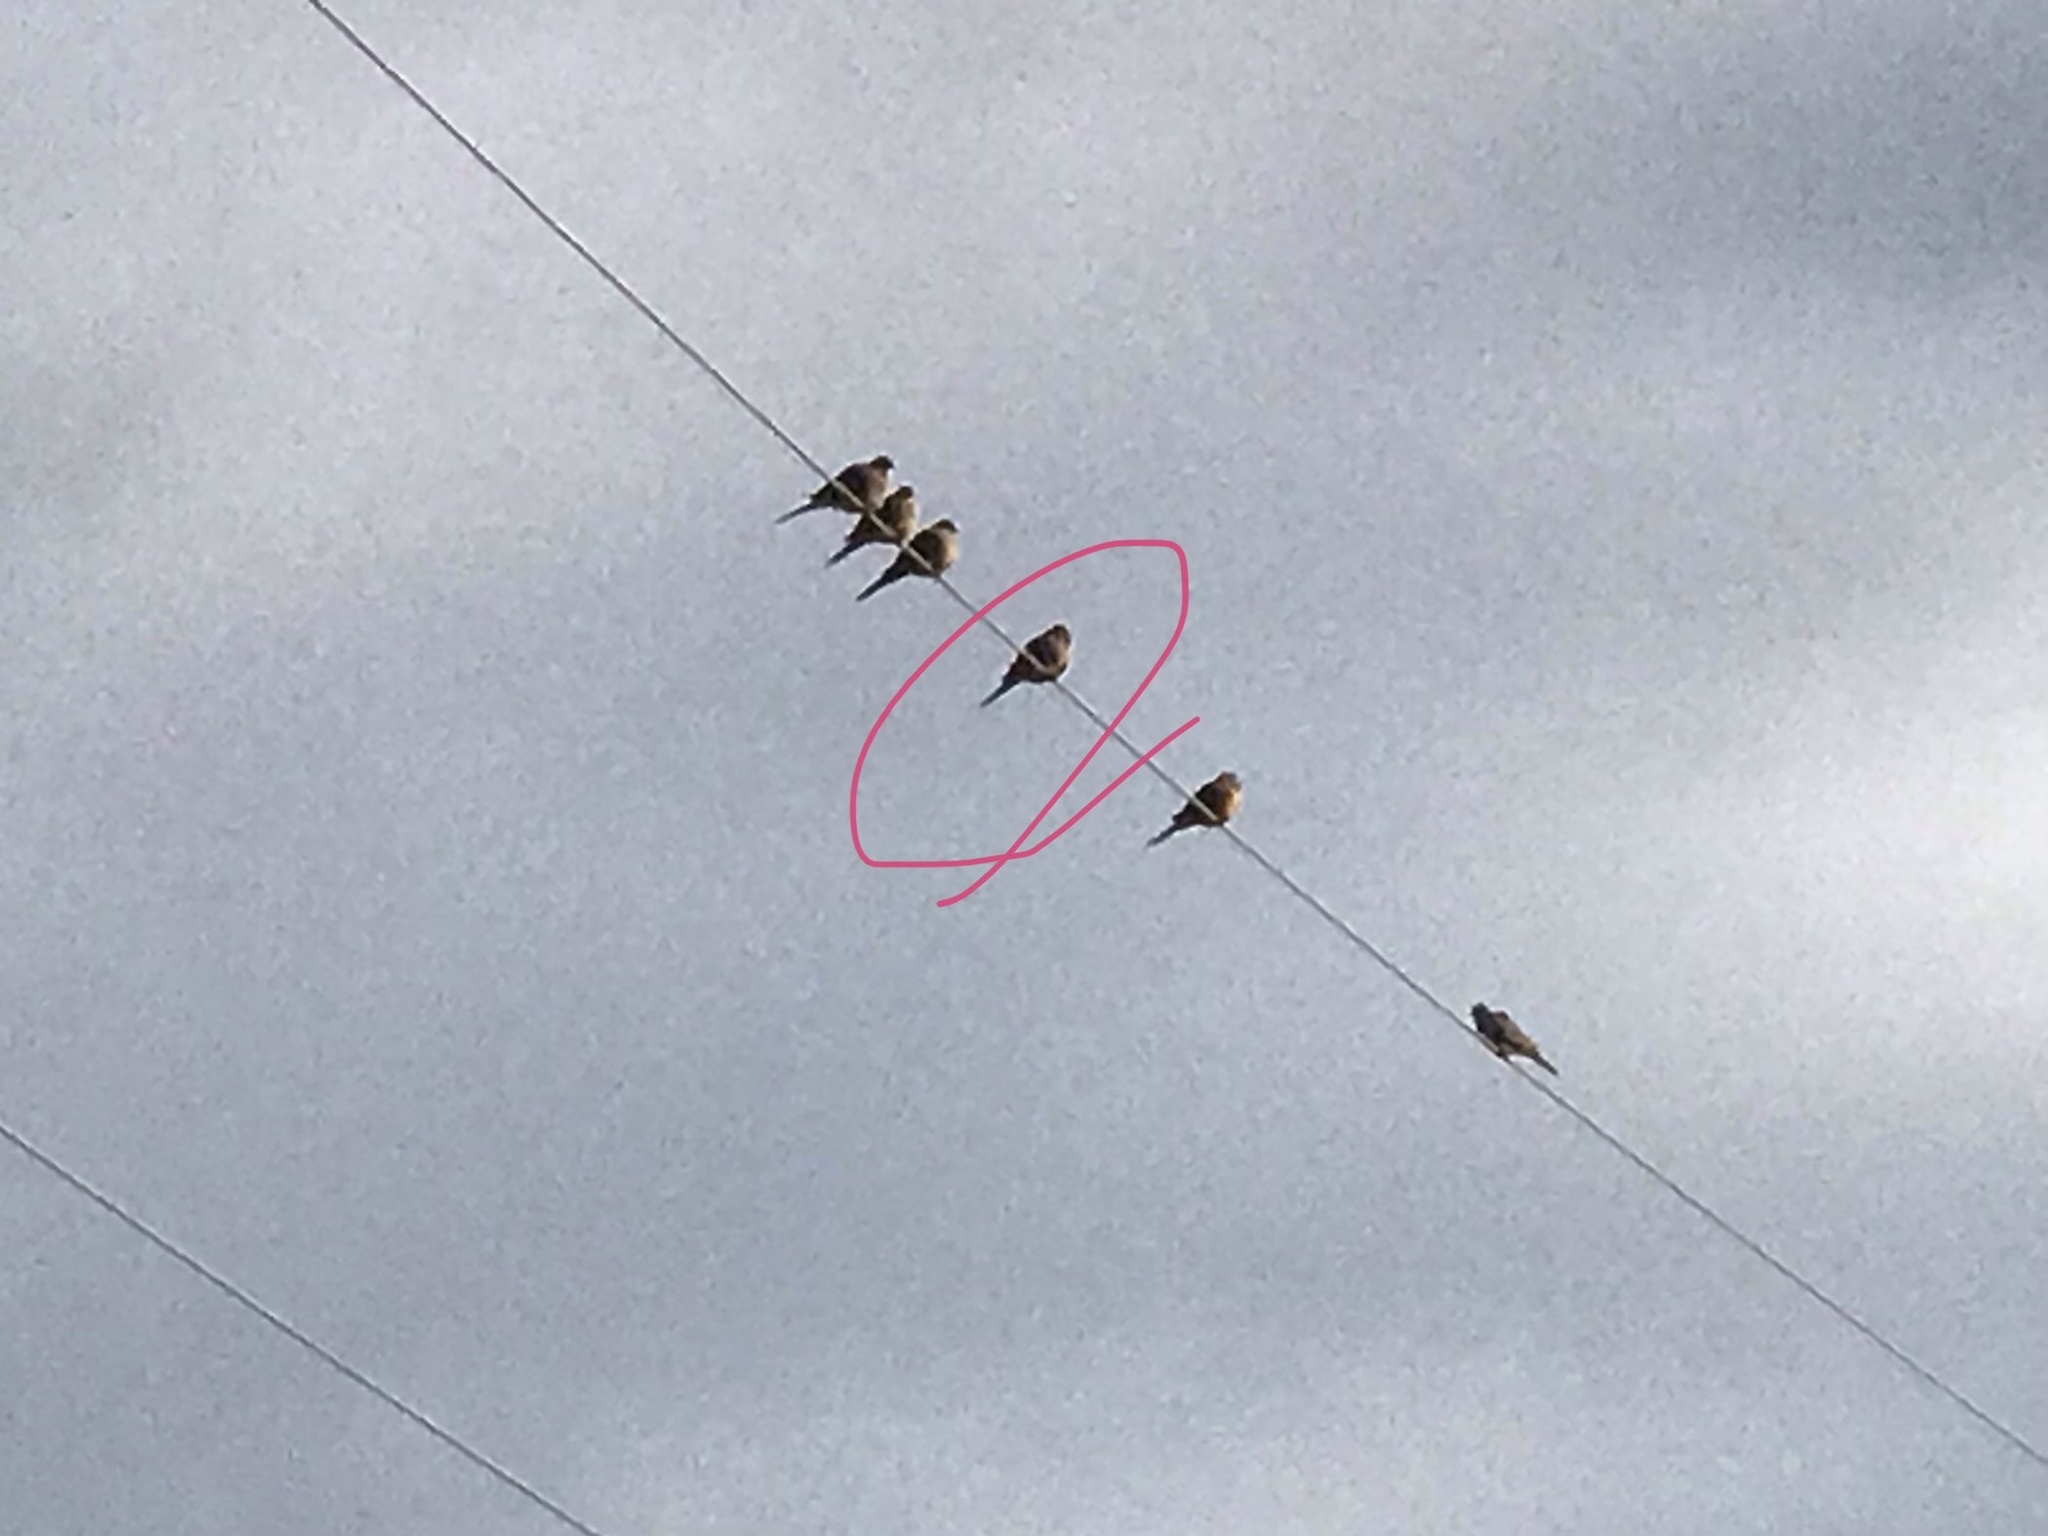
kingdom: Animalia
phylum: Chordata
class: Aves
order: Columbiformes
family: Columbidae
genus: Zenaida
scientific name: Zenaida macroura
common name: Mourning dove
